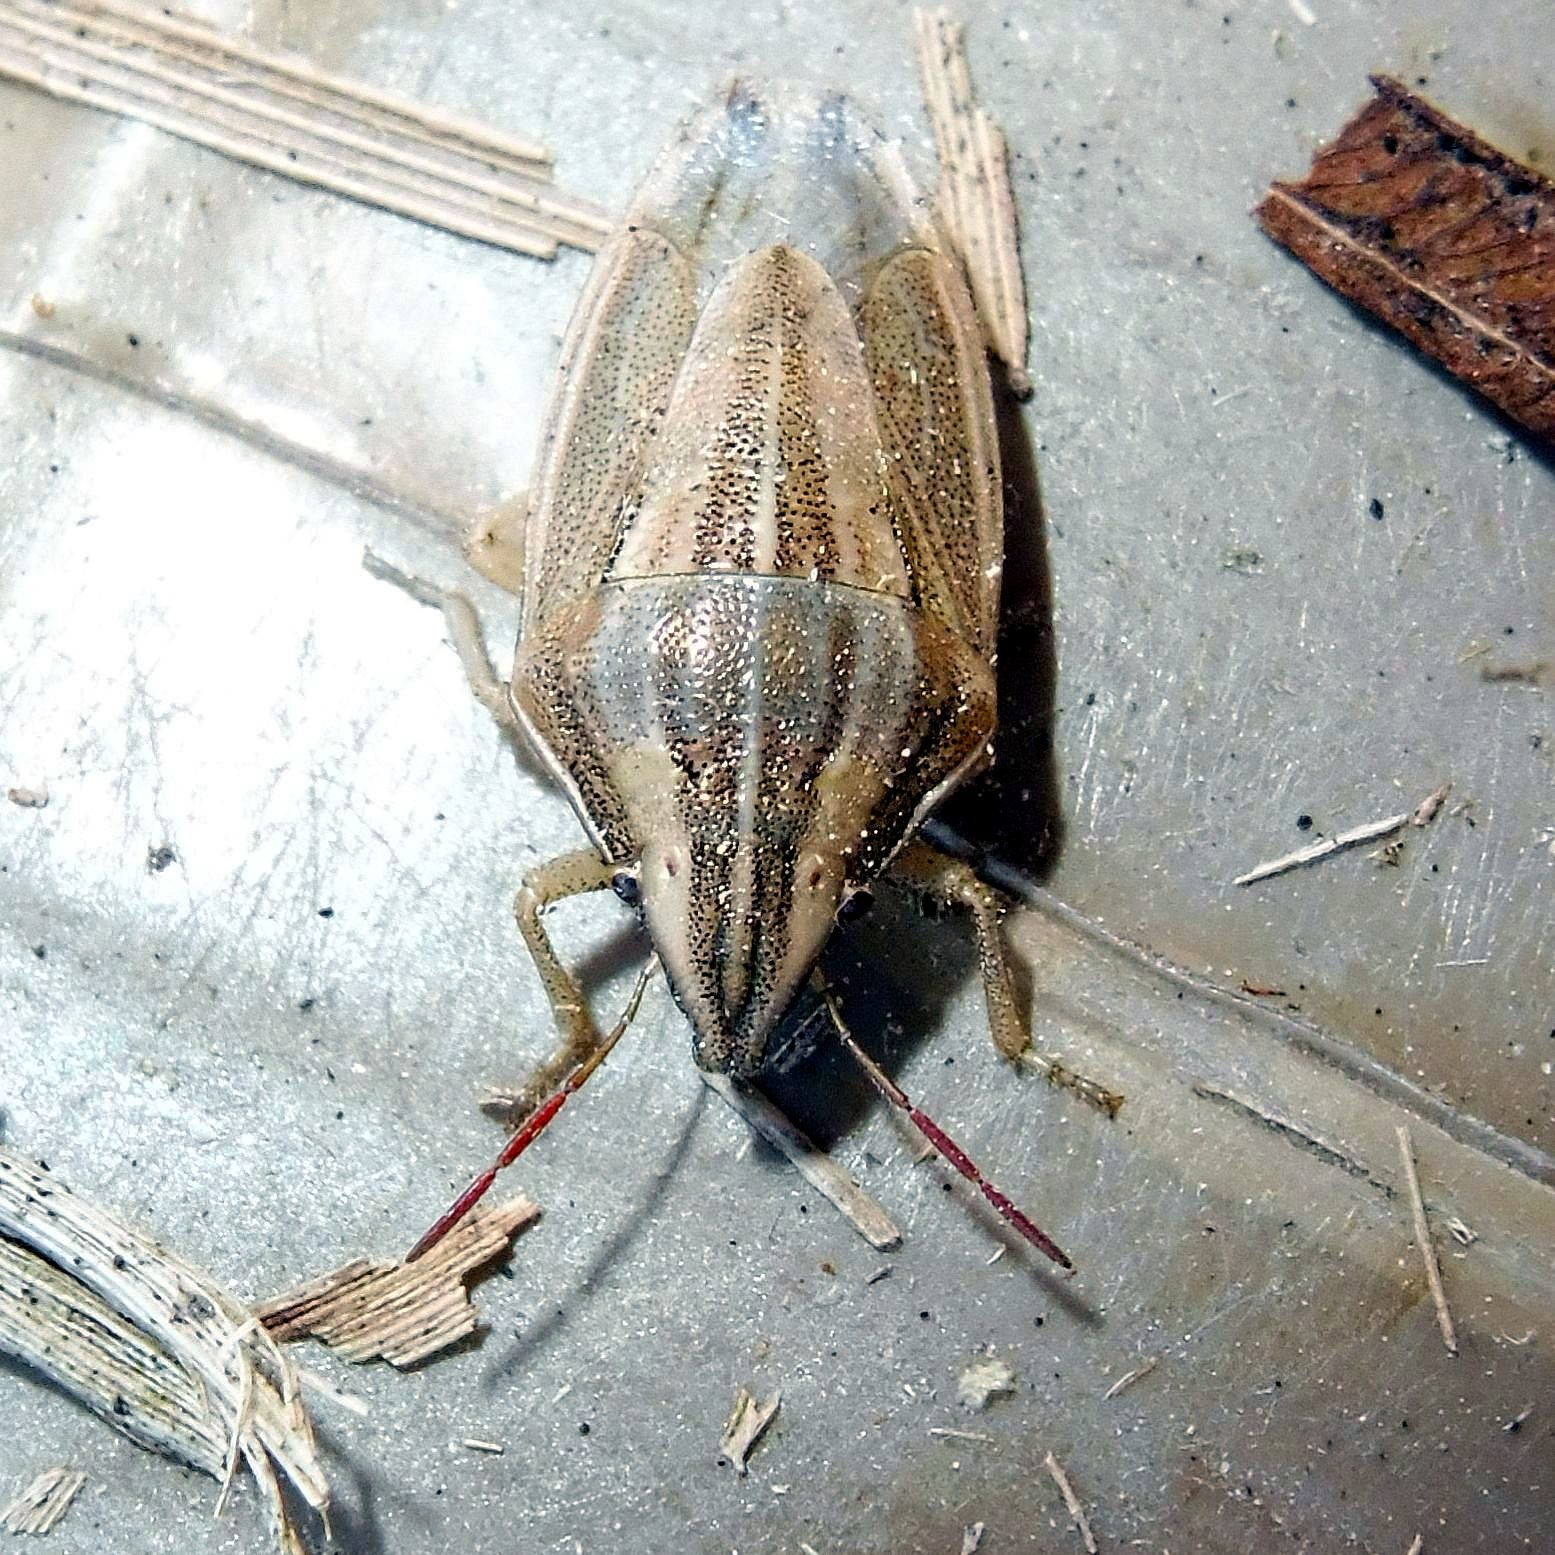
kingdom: Animalia
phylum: Arthropoda
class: Insecta
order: Hemiptera
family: Pentatomidae
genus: Aelia
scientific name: Aelia acuminata
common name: Bishop's mitre
